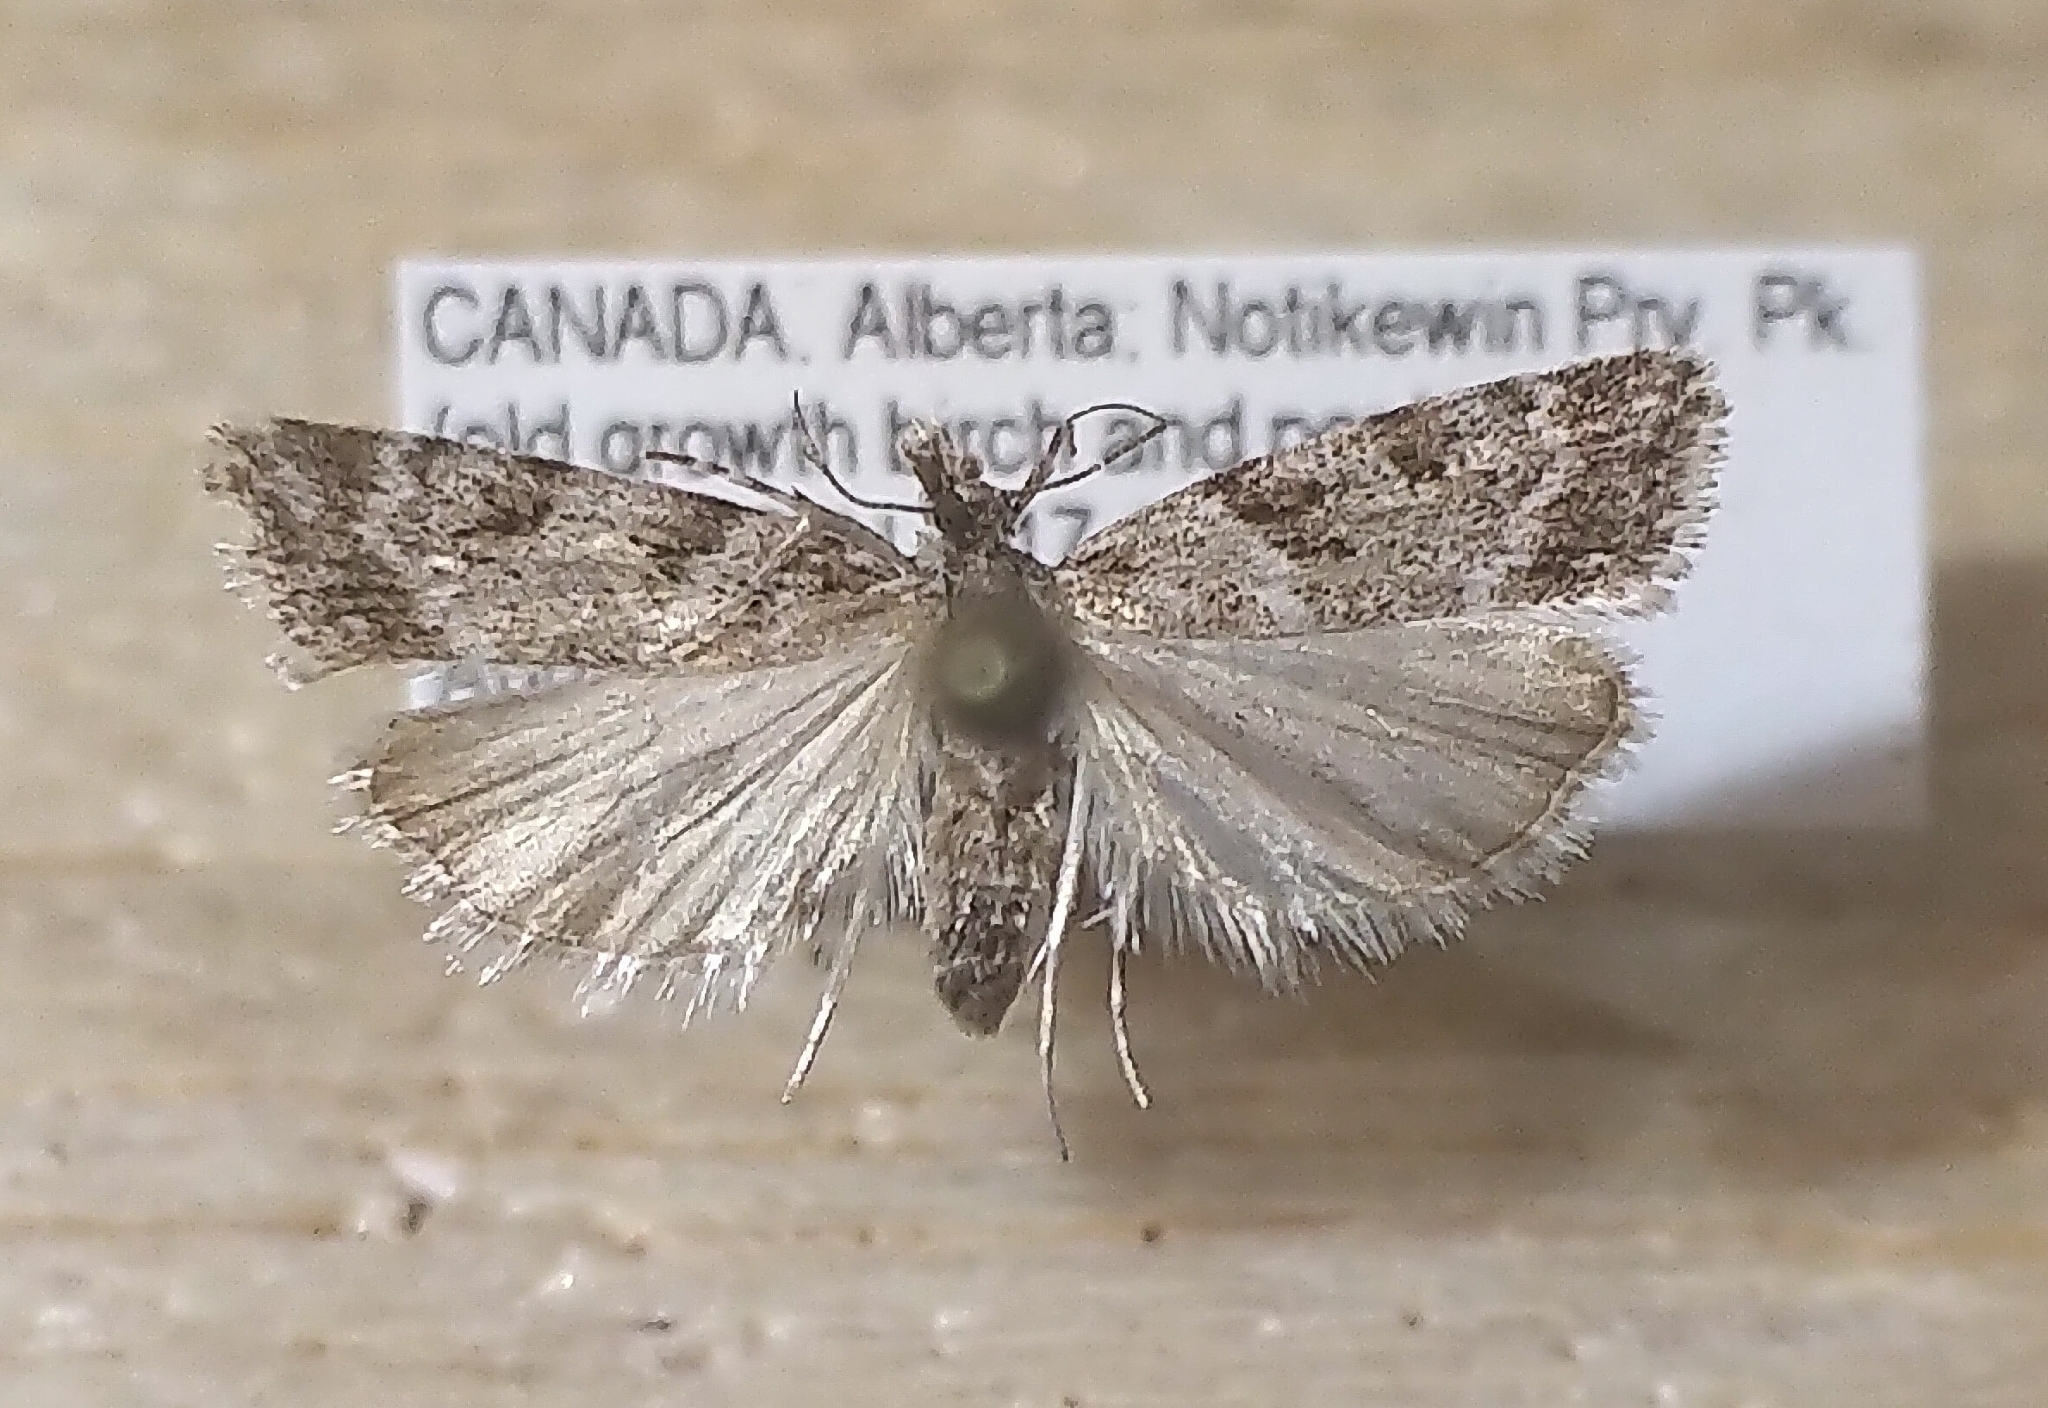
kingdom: Animalia
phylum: Arthropoda
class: Insecta
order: Lepidoptera
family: Crambidae
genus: Scoparia
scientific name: Scoparia biplagialis
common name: Double-striped scoparia moth
